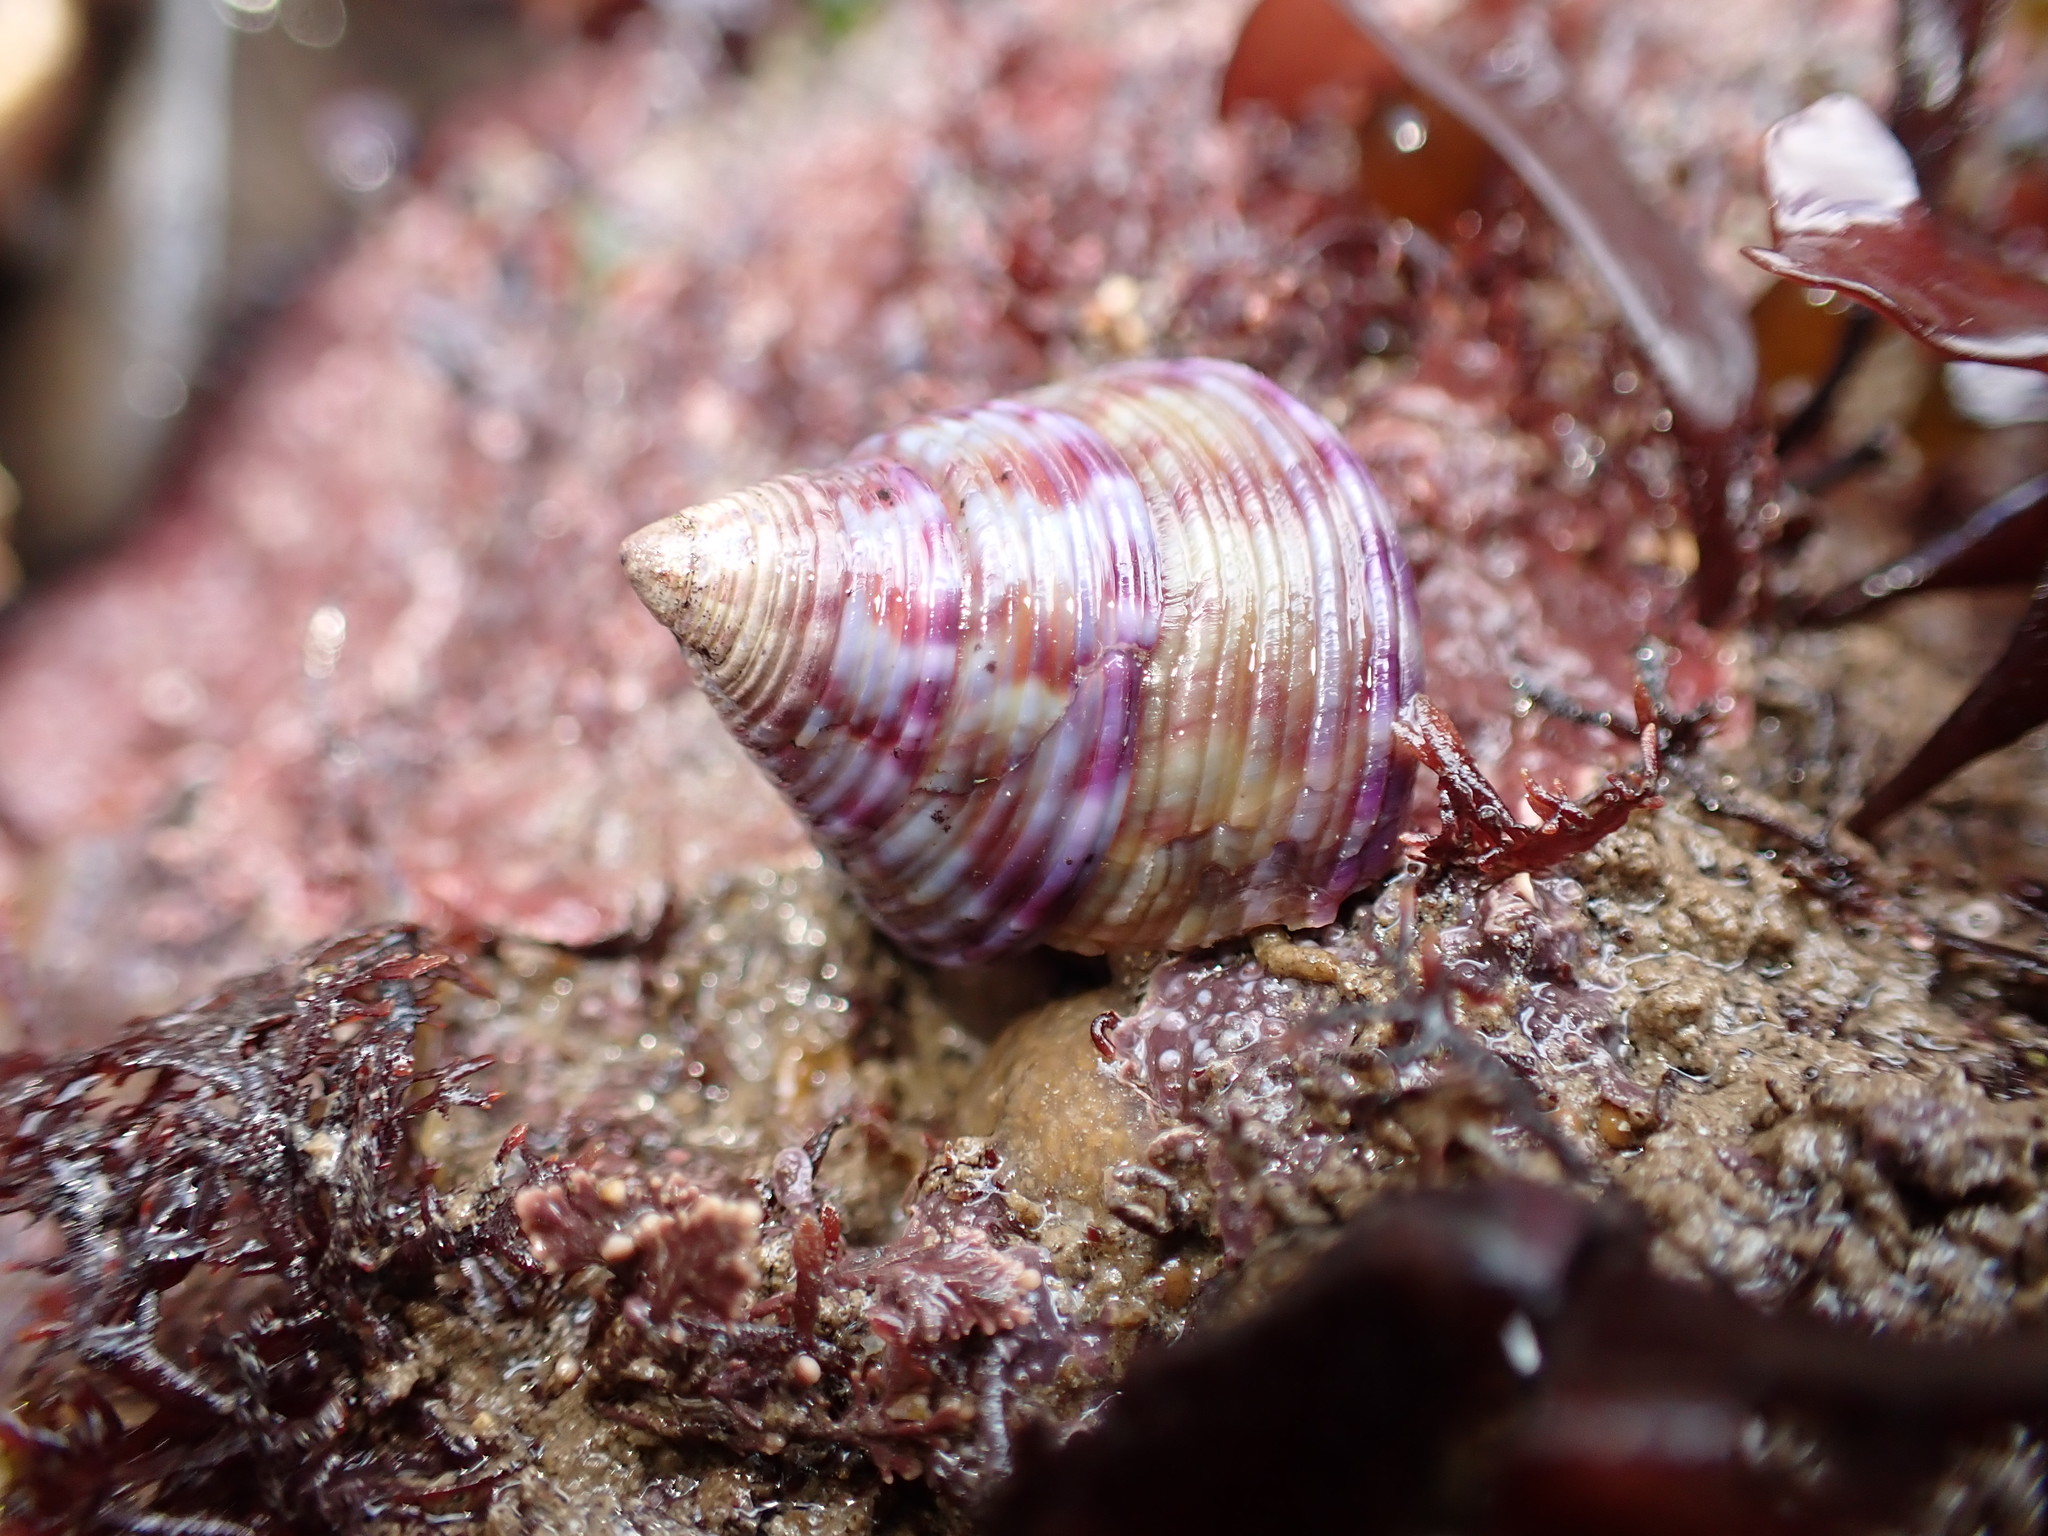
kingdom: Animalia
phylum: Mollusca
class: Gastropoda
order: Trochida
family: Calliostomatidae
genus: Calliostoma
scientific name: Calliostoma zizyphinum
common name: Painted top shell
